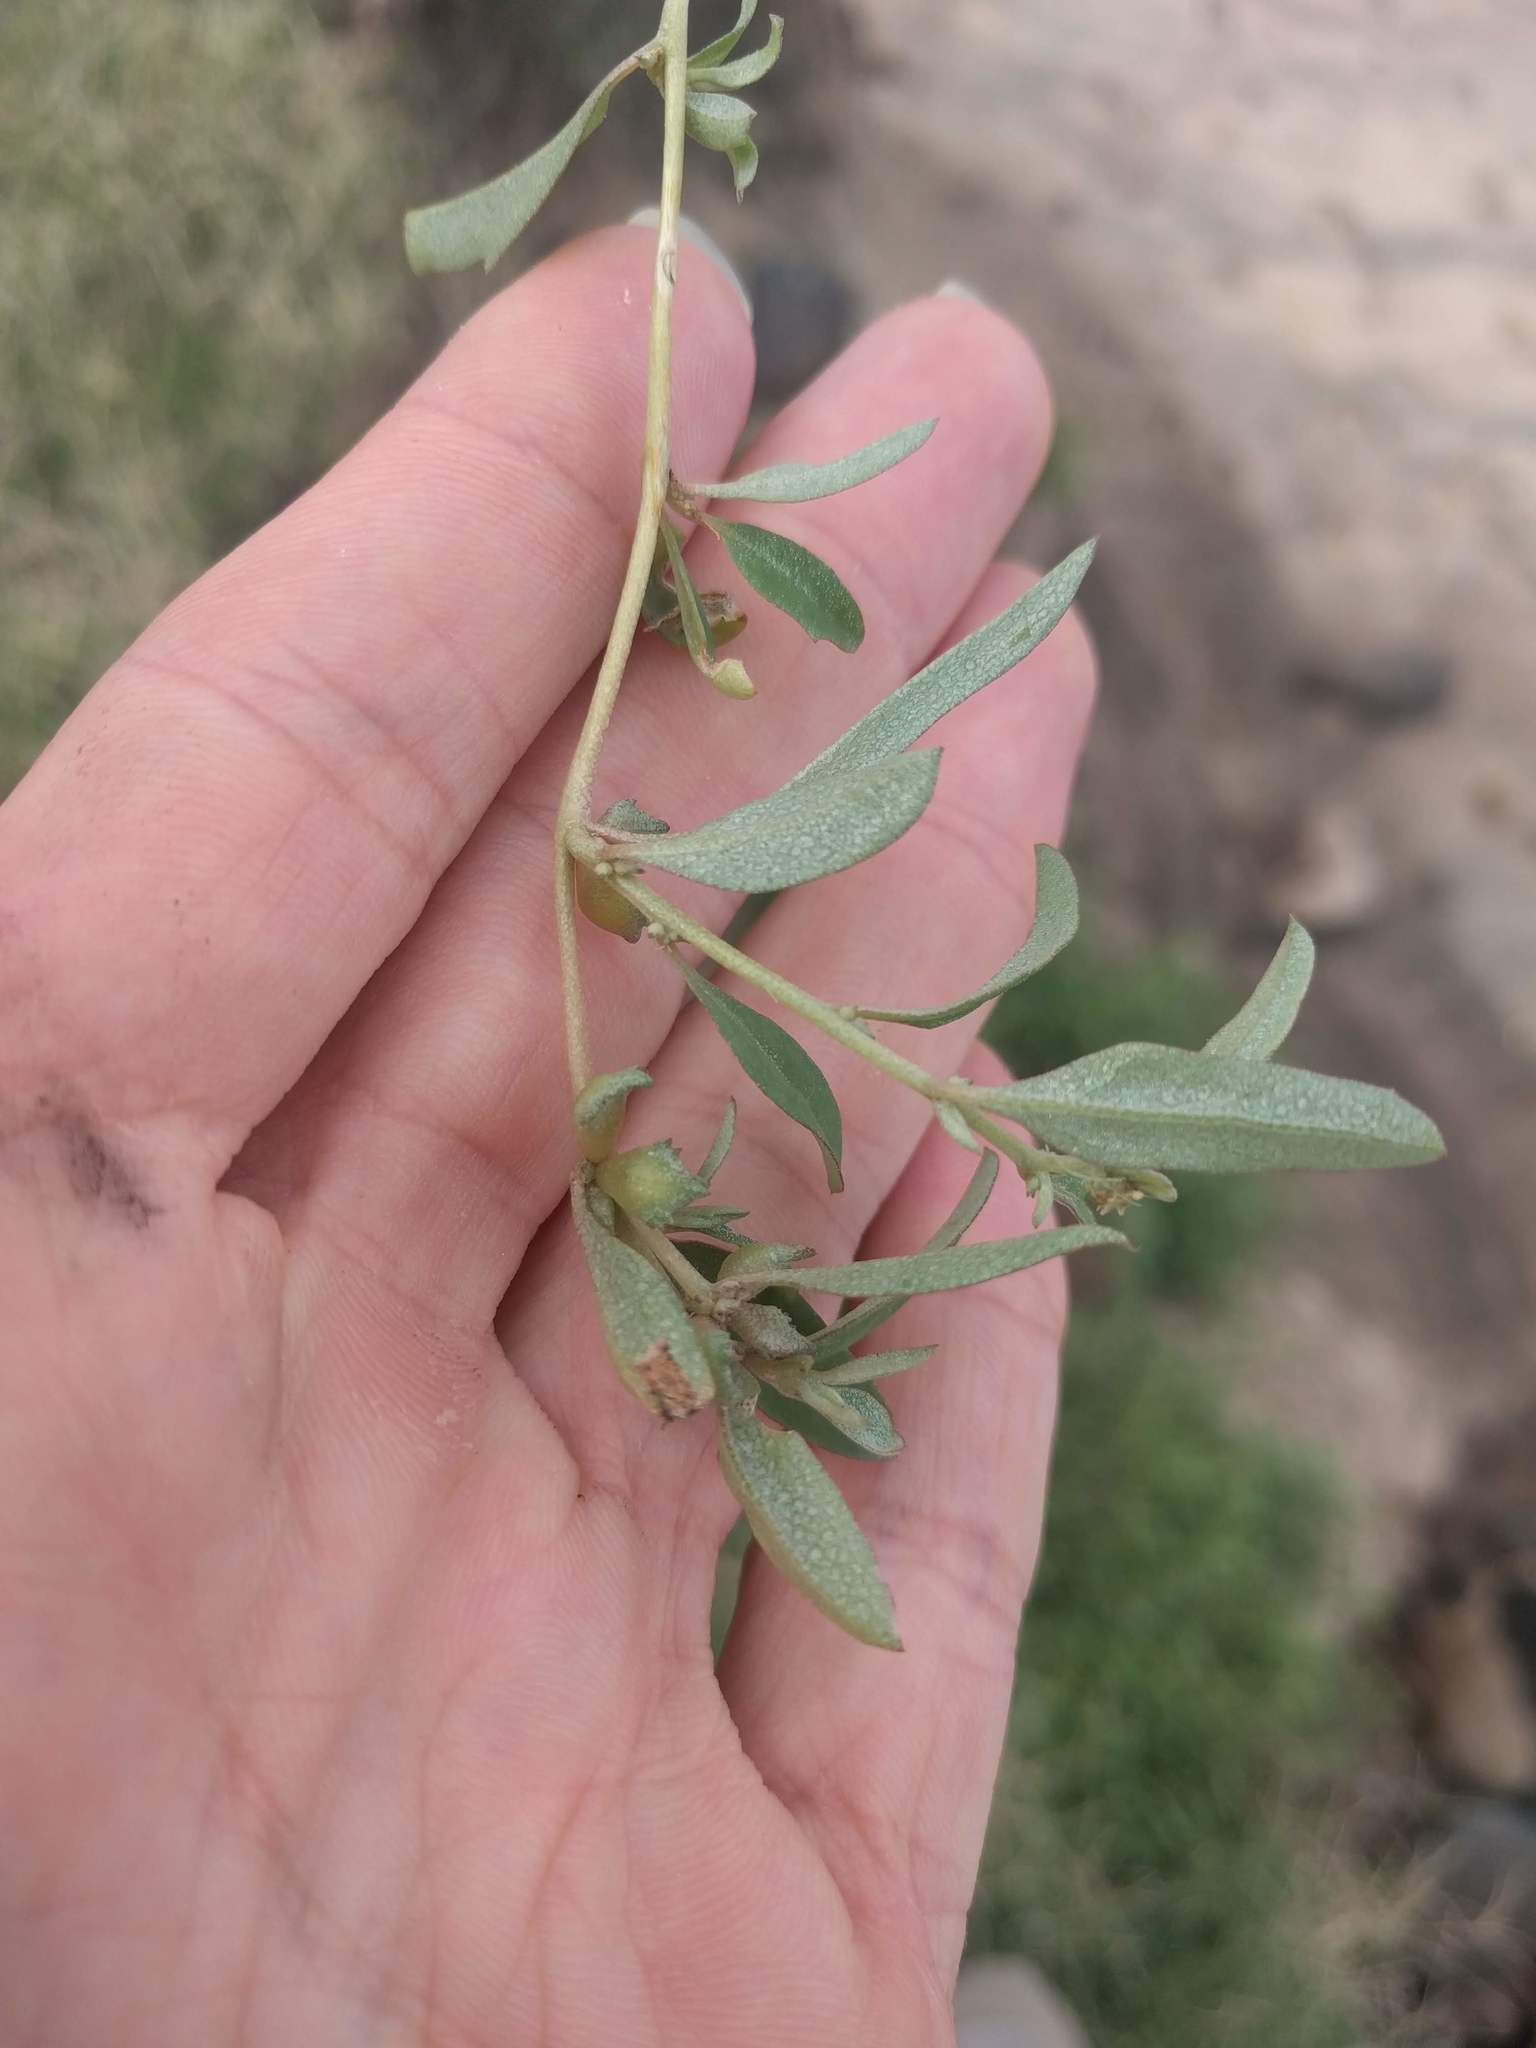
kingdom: Plantae
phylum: Tracheophyta
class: Magnoliopsida
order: Caryophyllales
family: Amaranthaceae
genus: Atriplex
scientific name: Atriplex suberecta
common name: Australian orache
